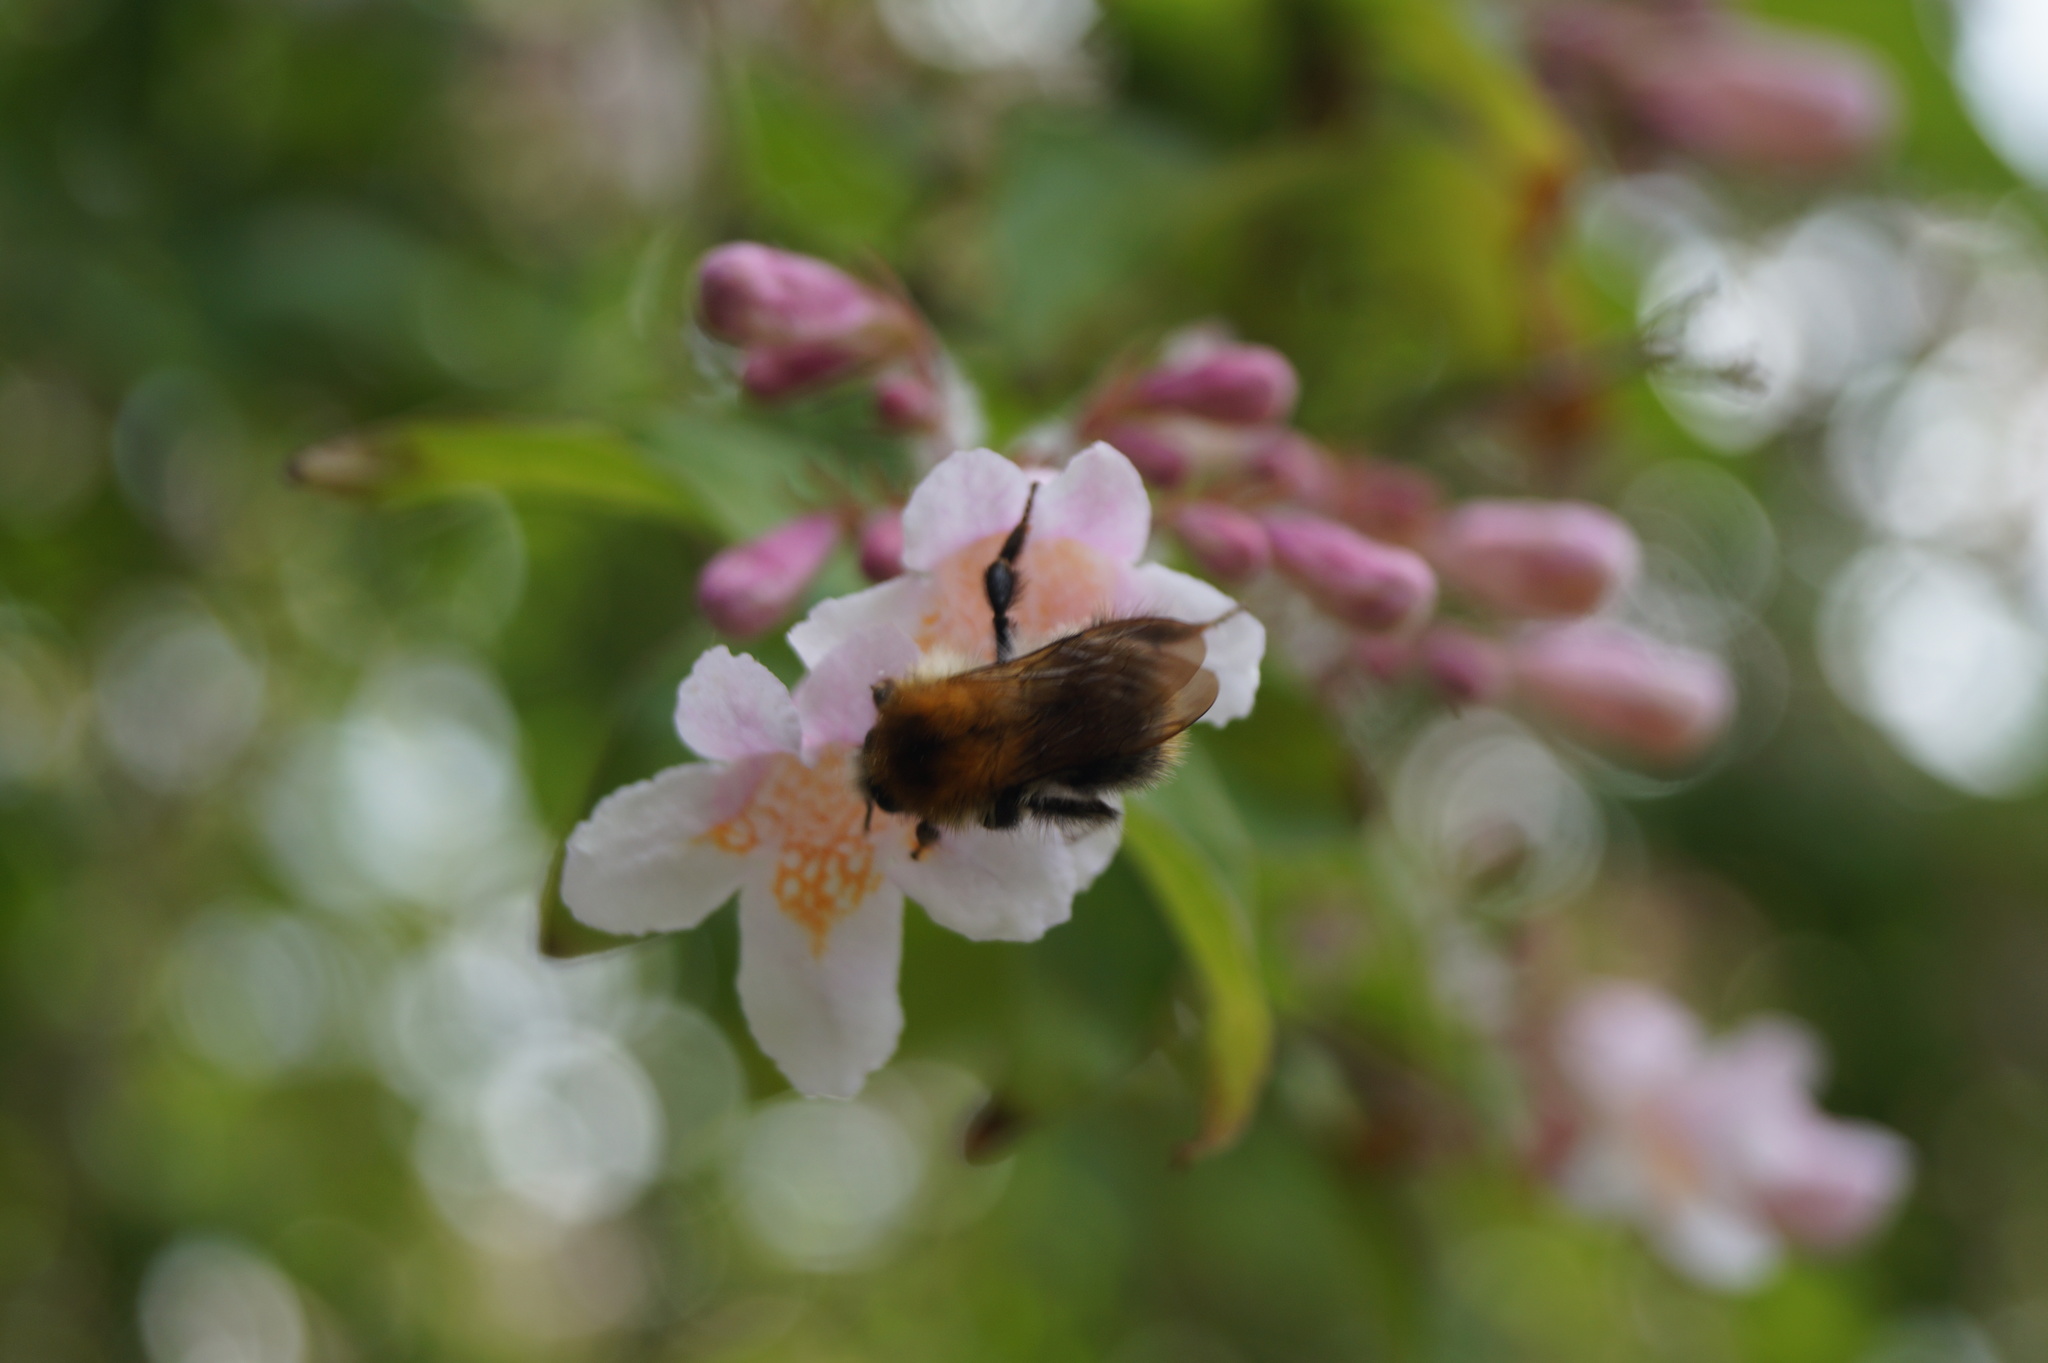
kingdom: Animalia
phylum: Arthropoda
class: Insecta
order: Hymenoptera
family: Apidae
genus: Bombus
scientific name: Bombus pascuorum
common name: Common carder bee
